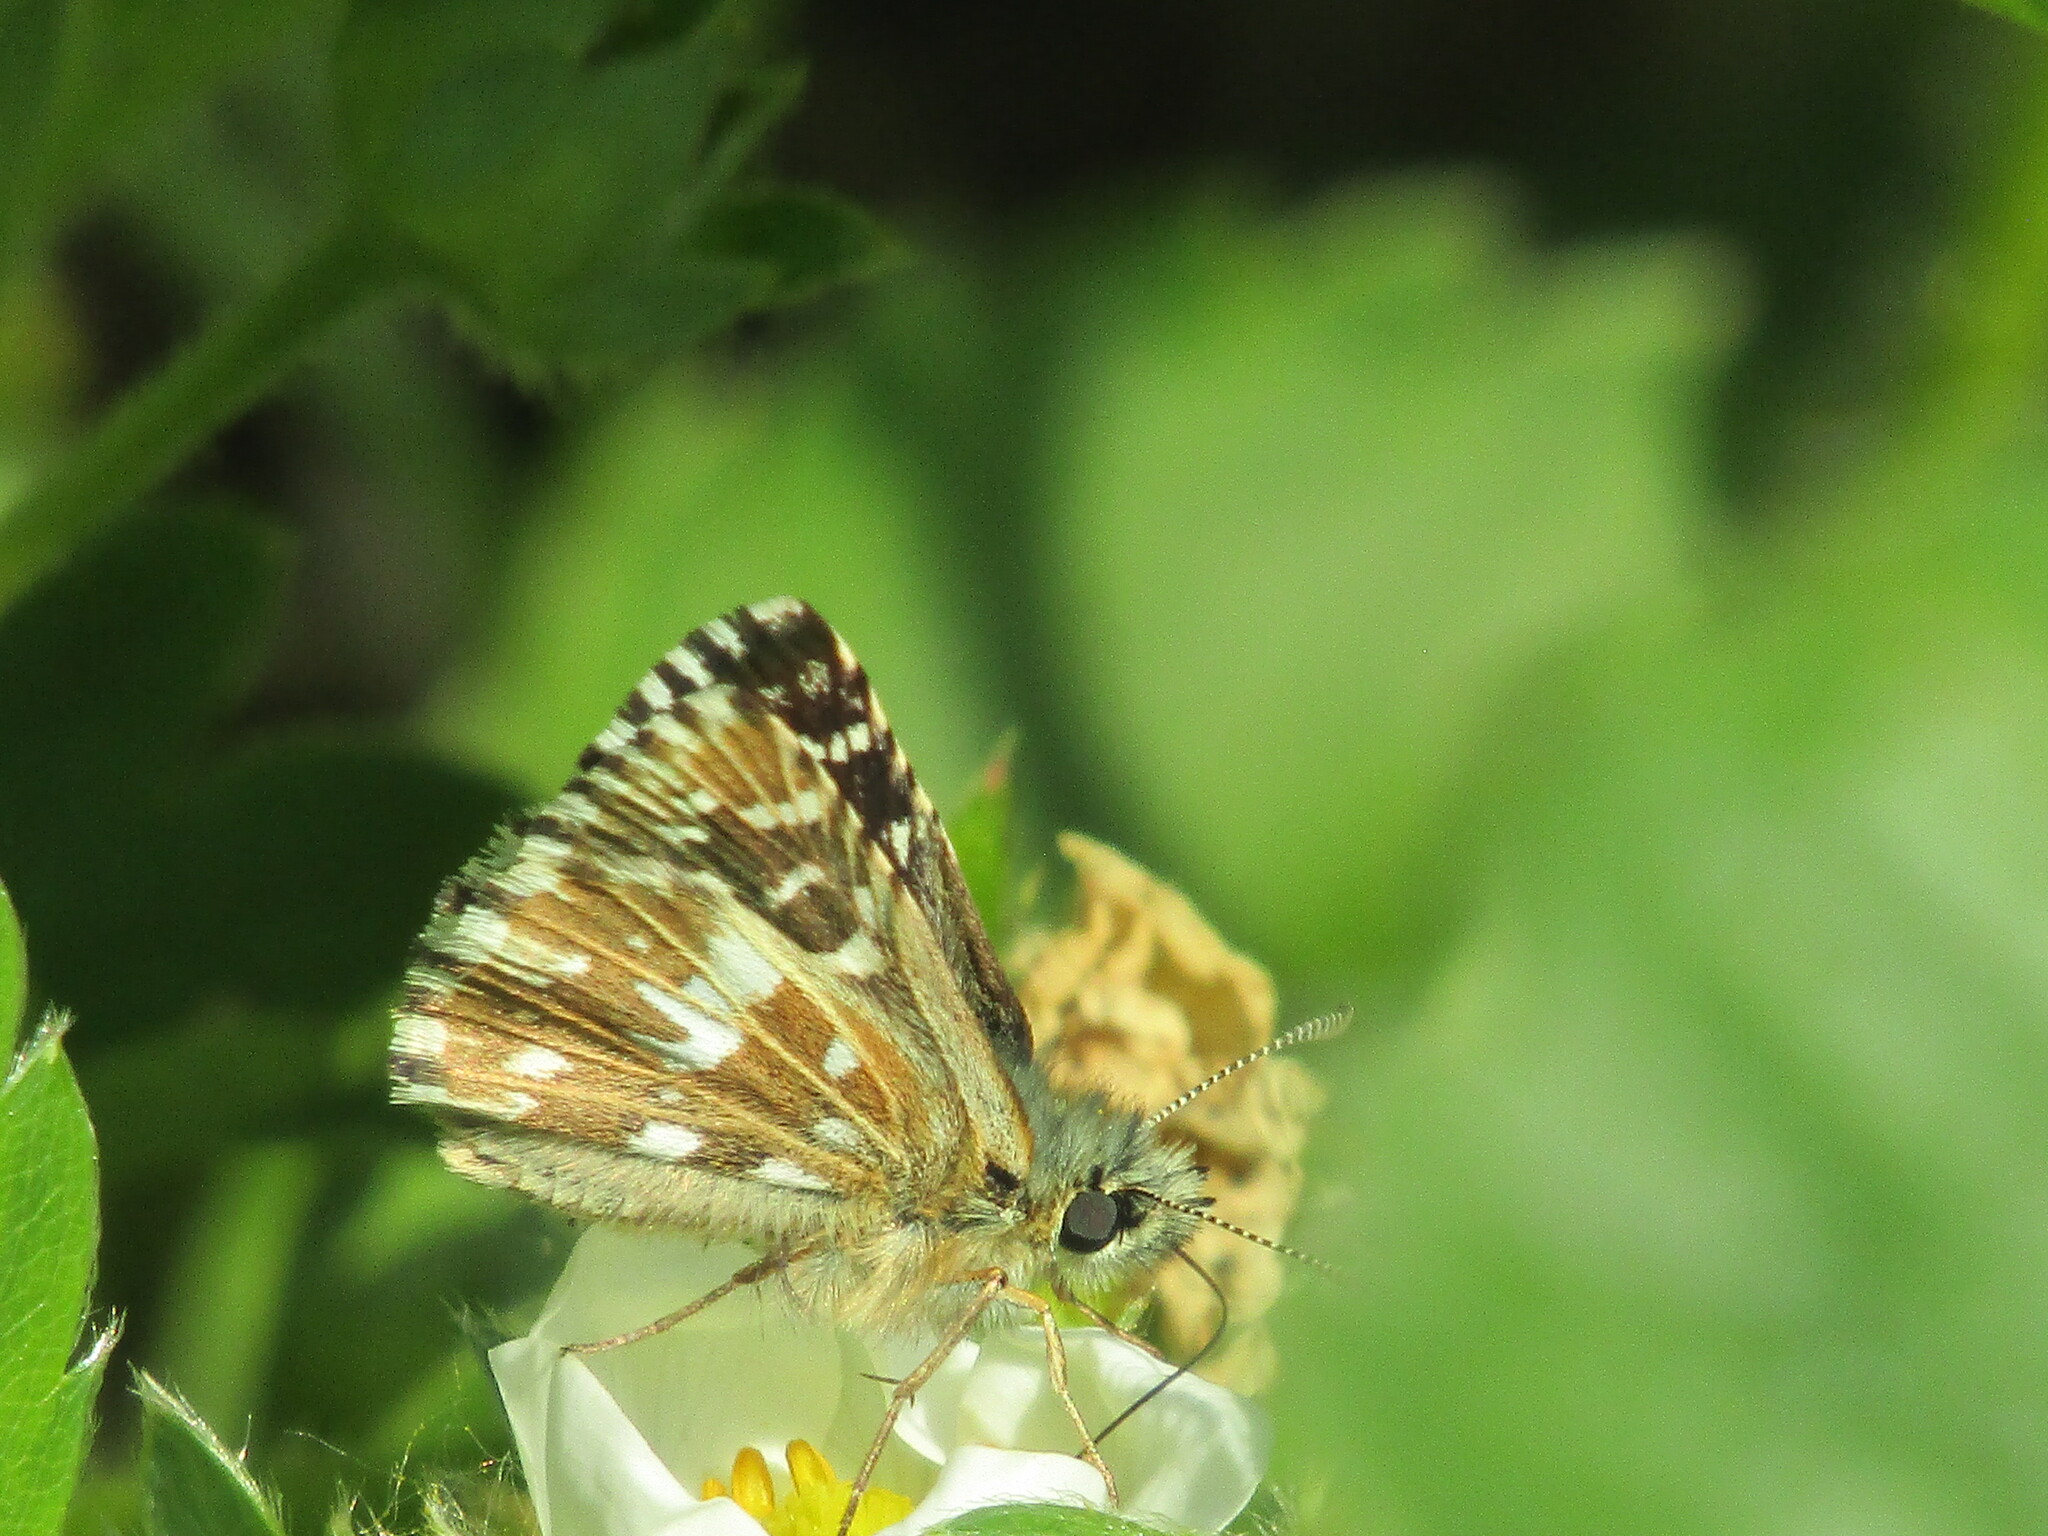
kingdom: Animalia
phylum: Arthropoda
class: Insecta
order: Lepidoptera
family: Hesperiidae
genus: Pyrgus
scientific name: Pyrgus malvae
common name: Grizzled skipper
